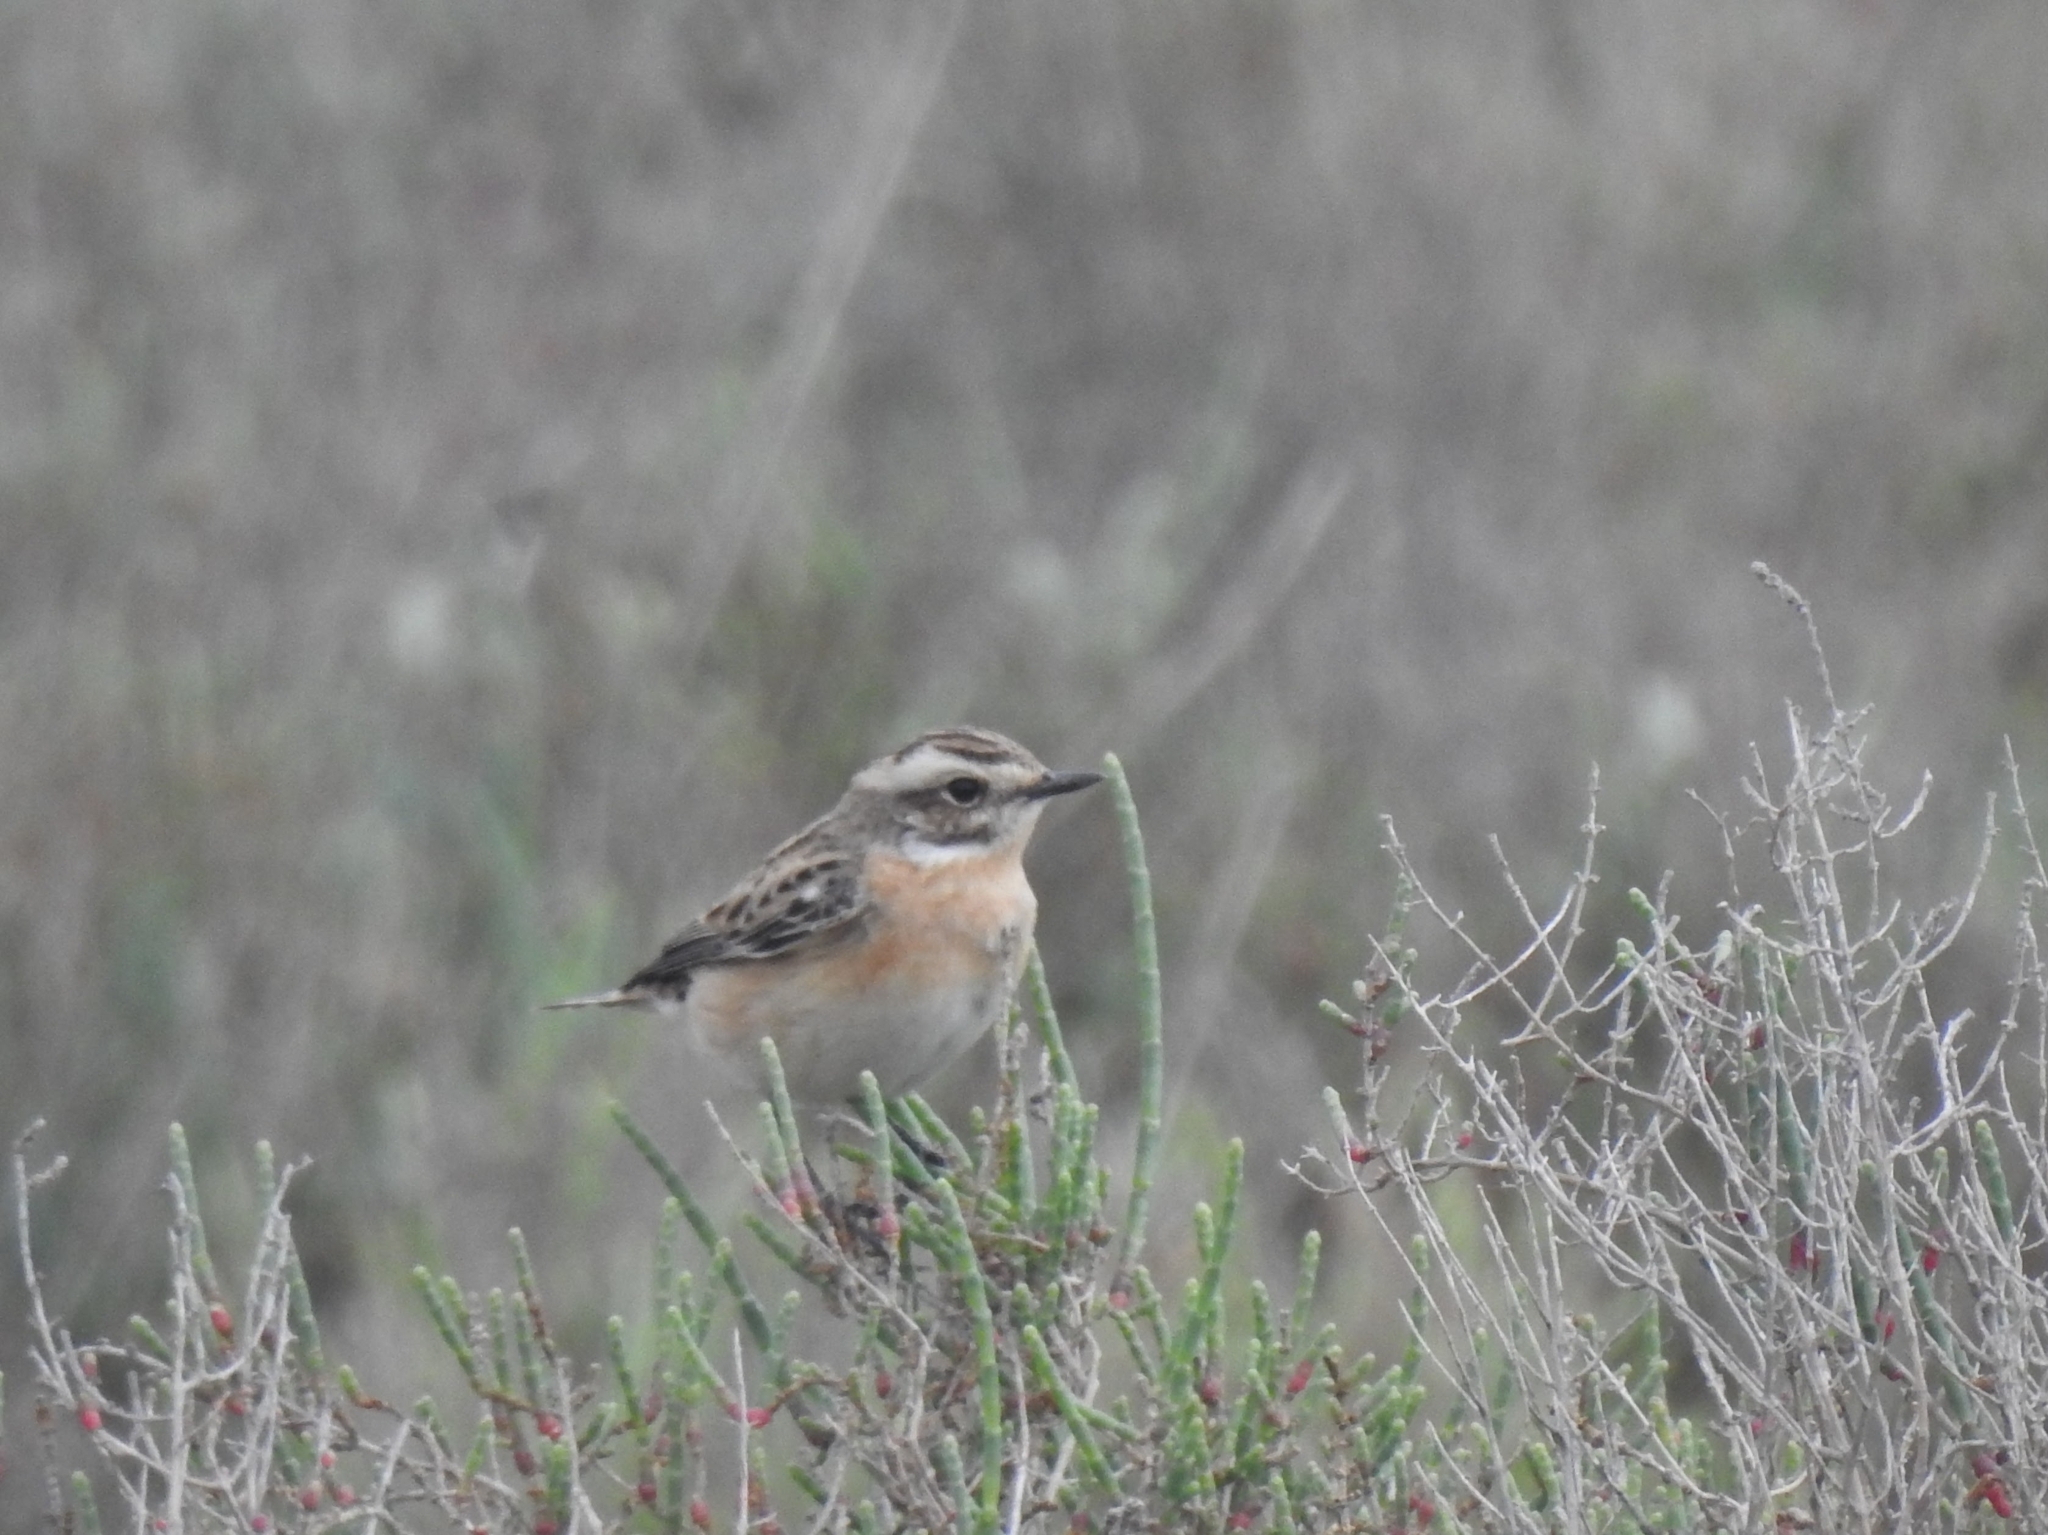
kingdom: Animalia
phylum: Chordata
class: Aves
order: Passeriformes
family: Muscicapidae
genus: Saxicola
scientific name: Saxicola rubetra
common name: Whinchat
